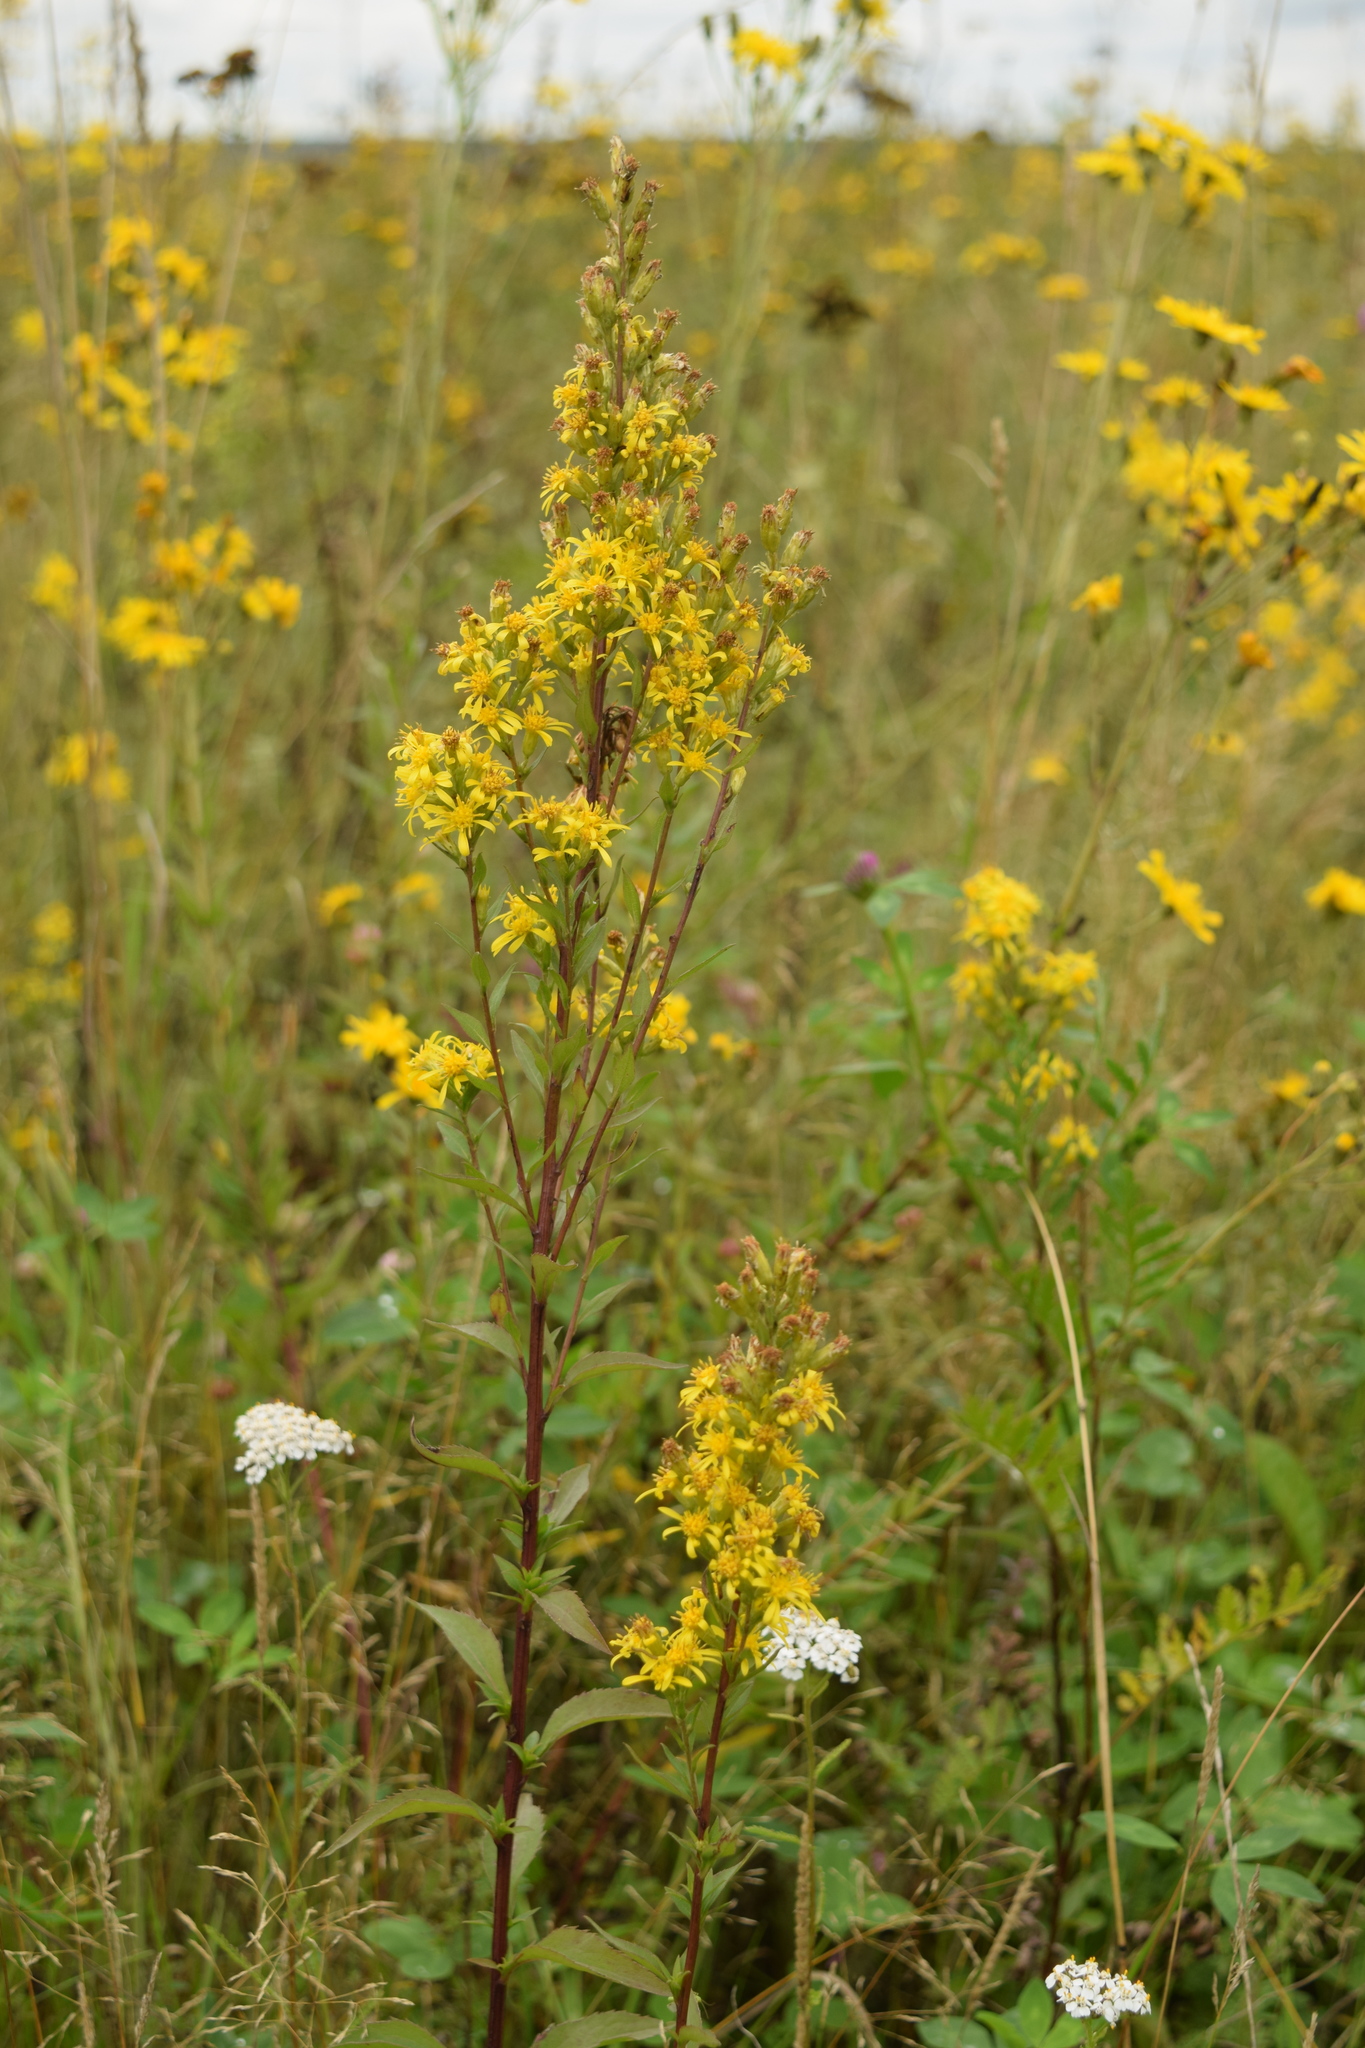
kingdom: Plantae
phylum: Tracheophyta
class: Magnoliopsida
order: Asterales
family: Asteraceae
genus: Solidago
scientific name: Solidago virgaurea
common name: Goldenrod
